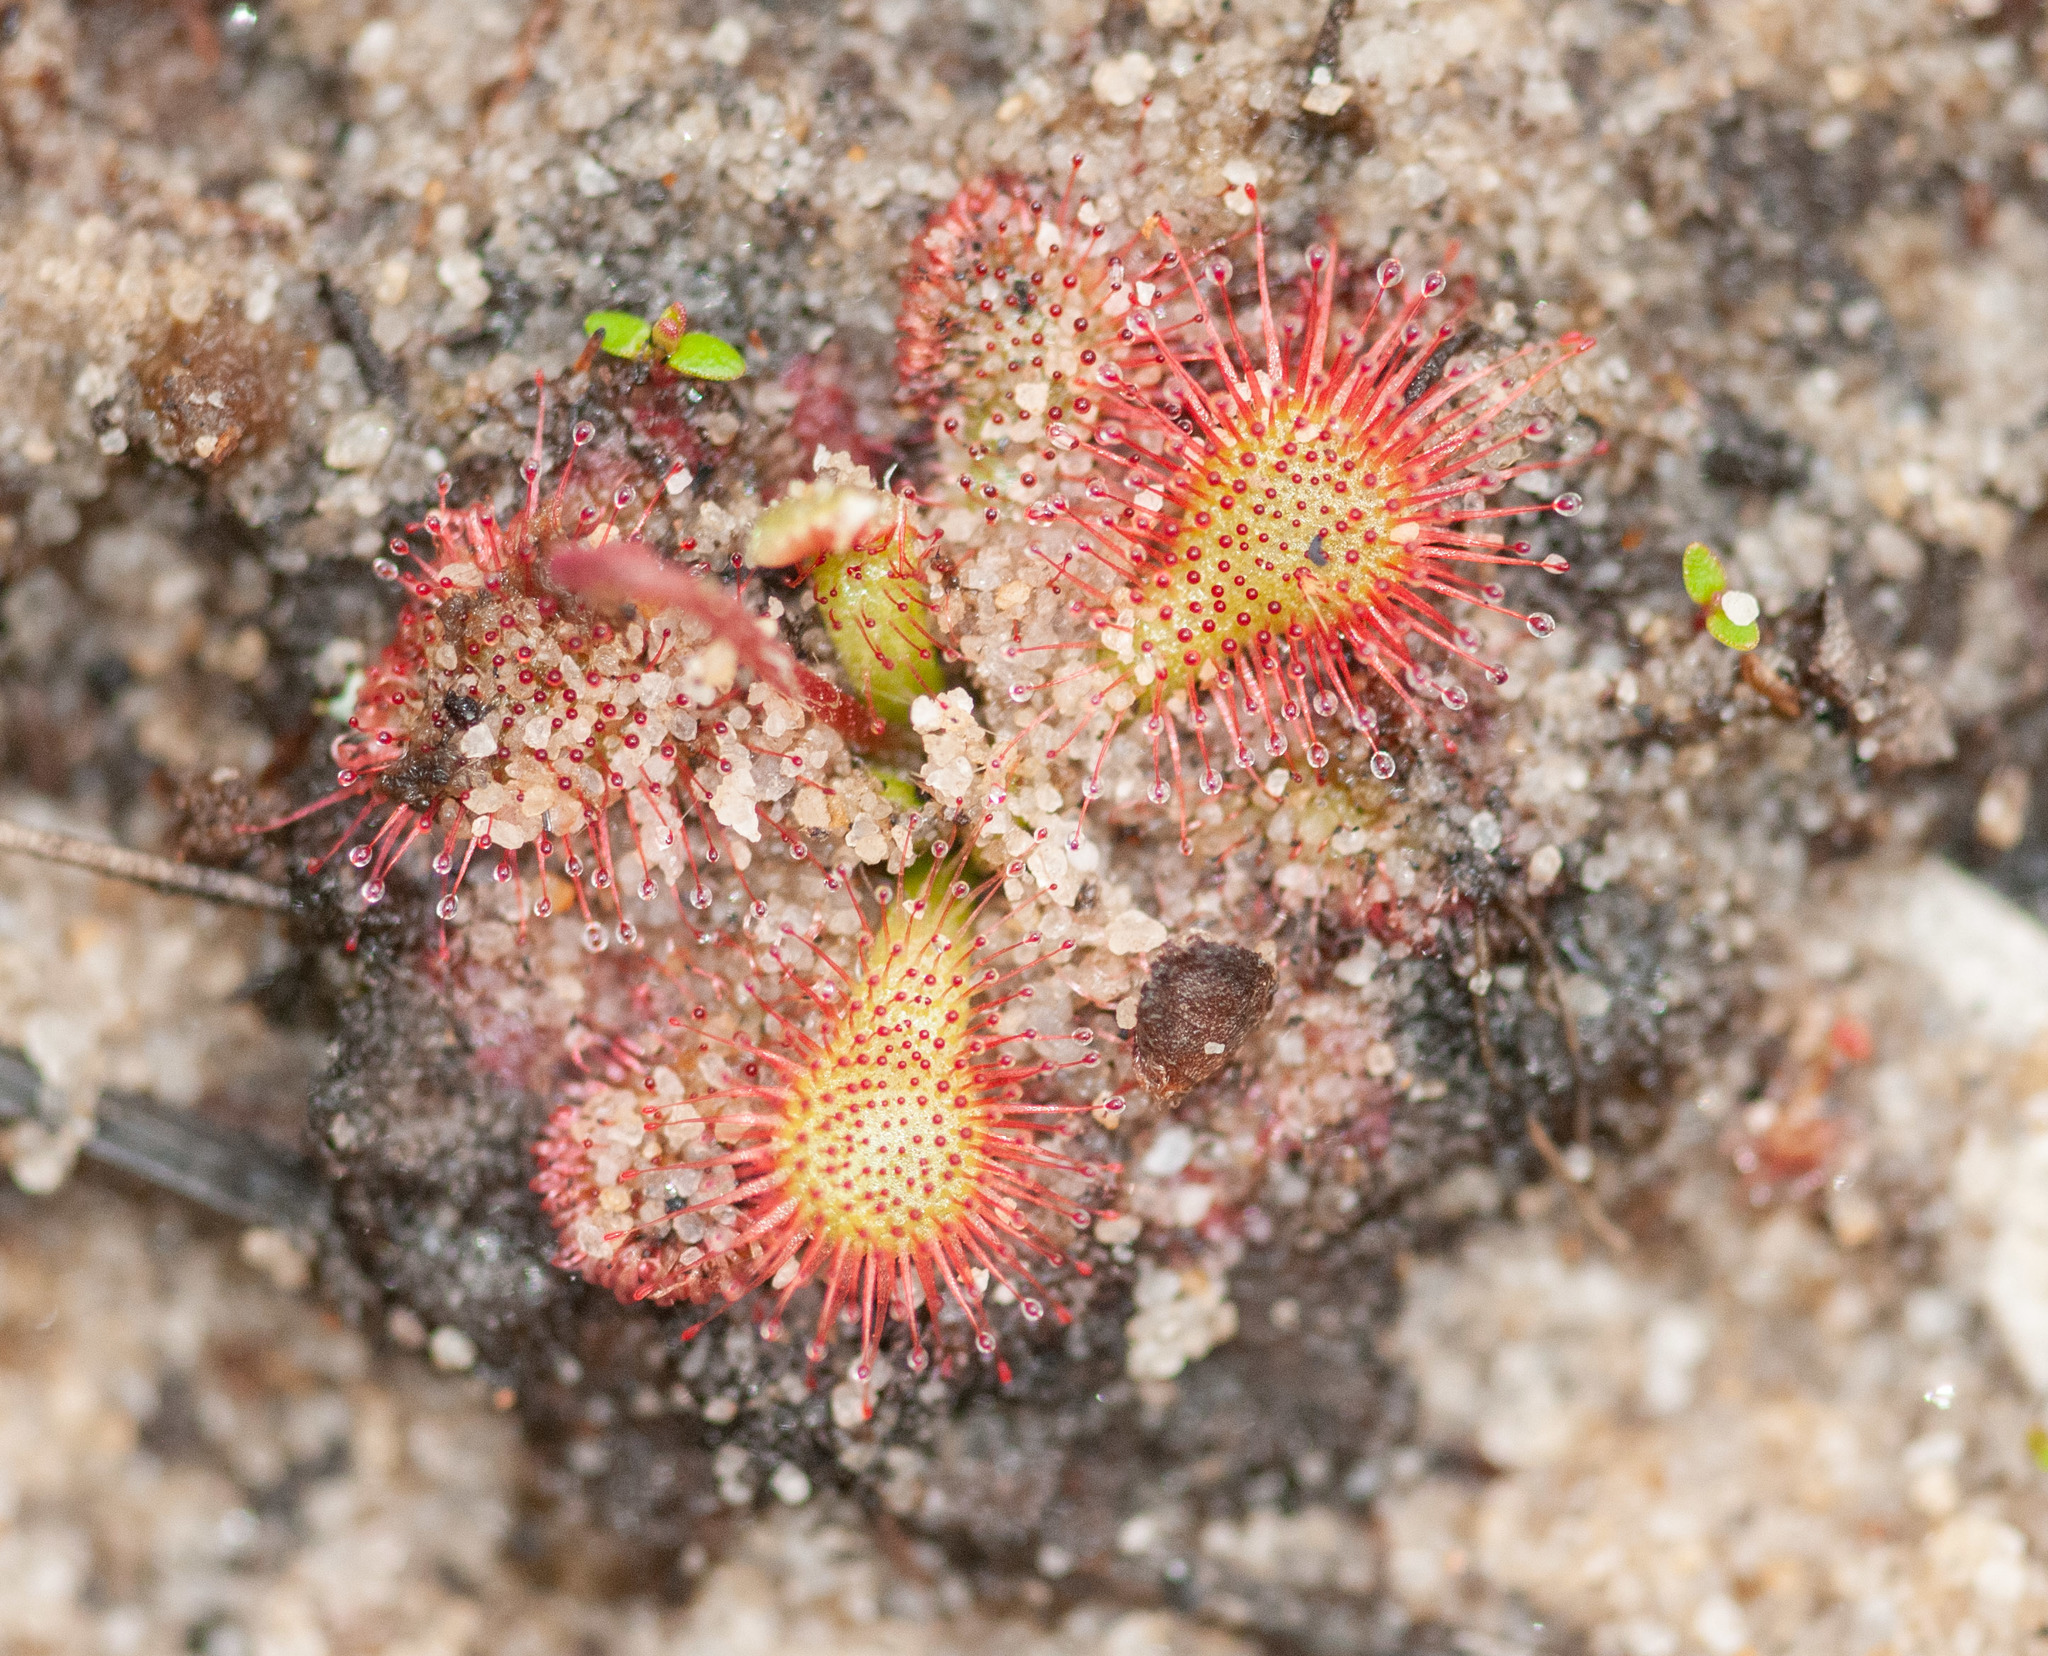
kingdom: Plantae
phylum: Tracheophyta
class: Magnoliopsida
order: Caryophyllales
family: Droseraceae
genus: Drosera
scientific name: Drosera spatulata
